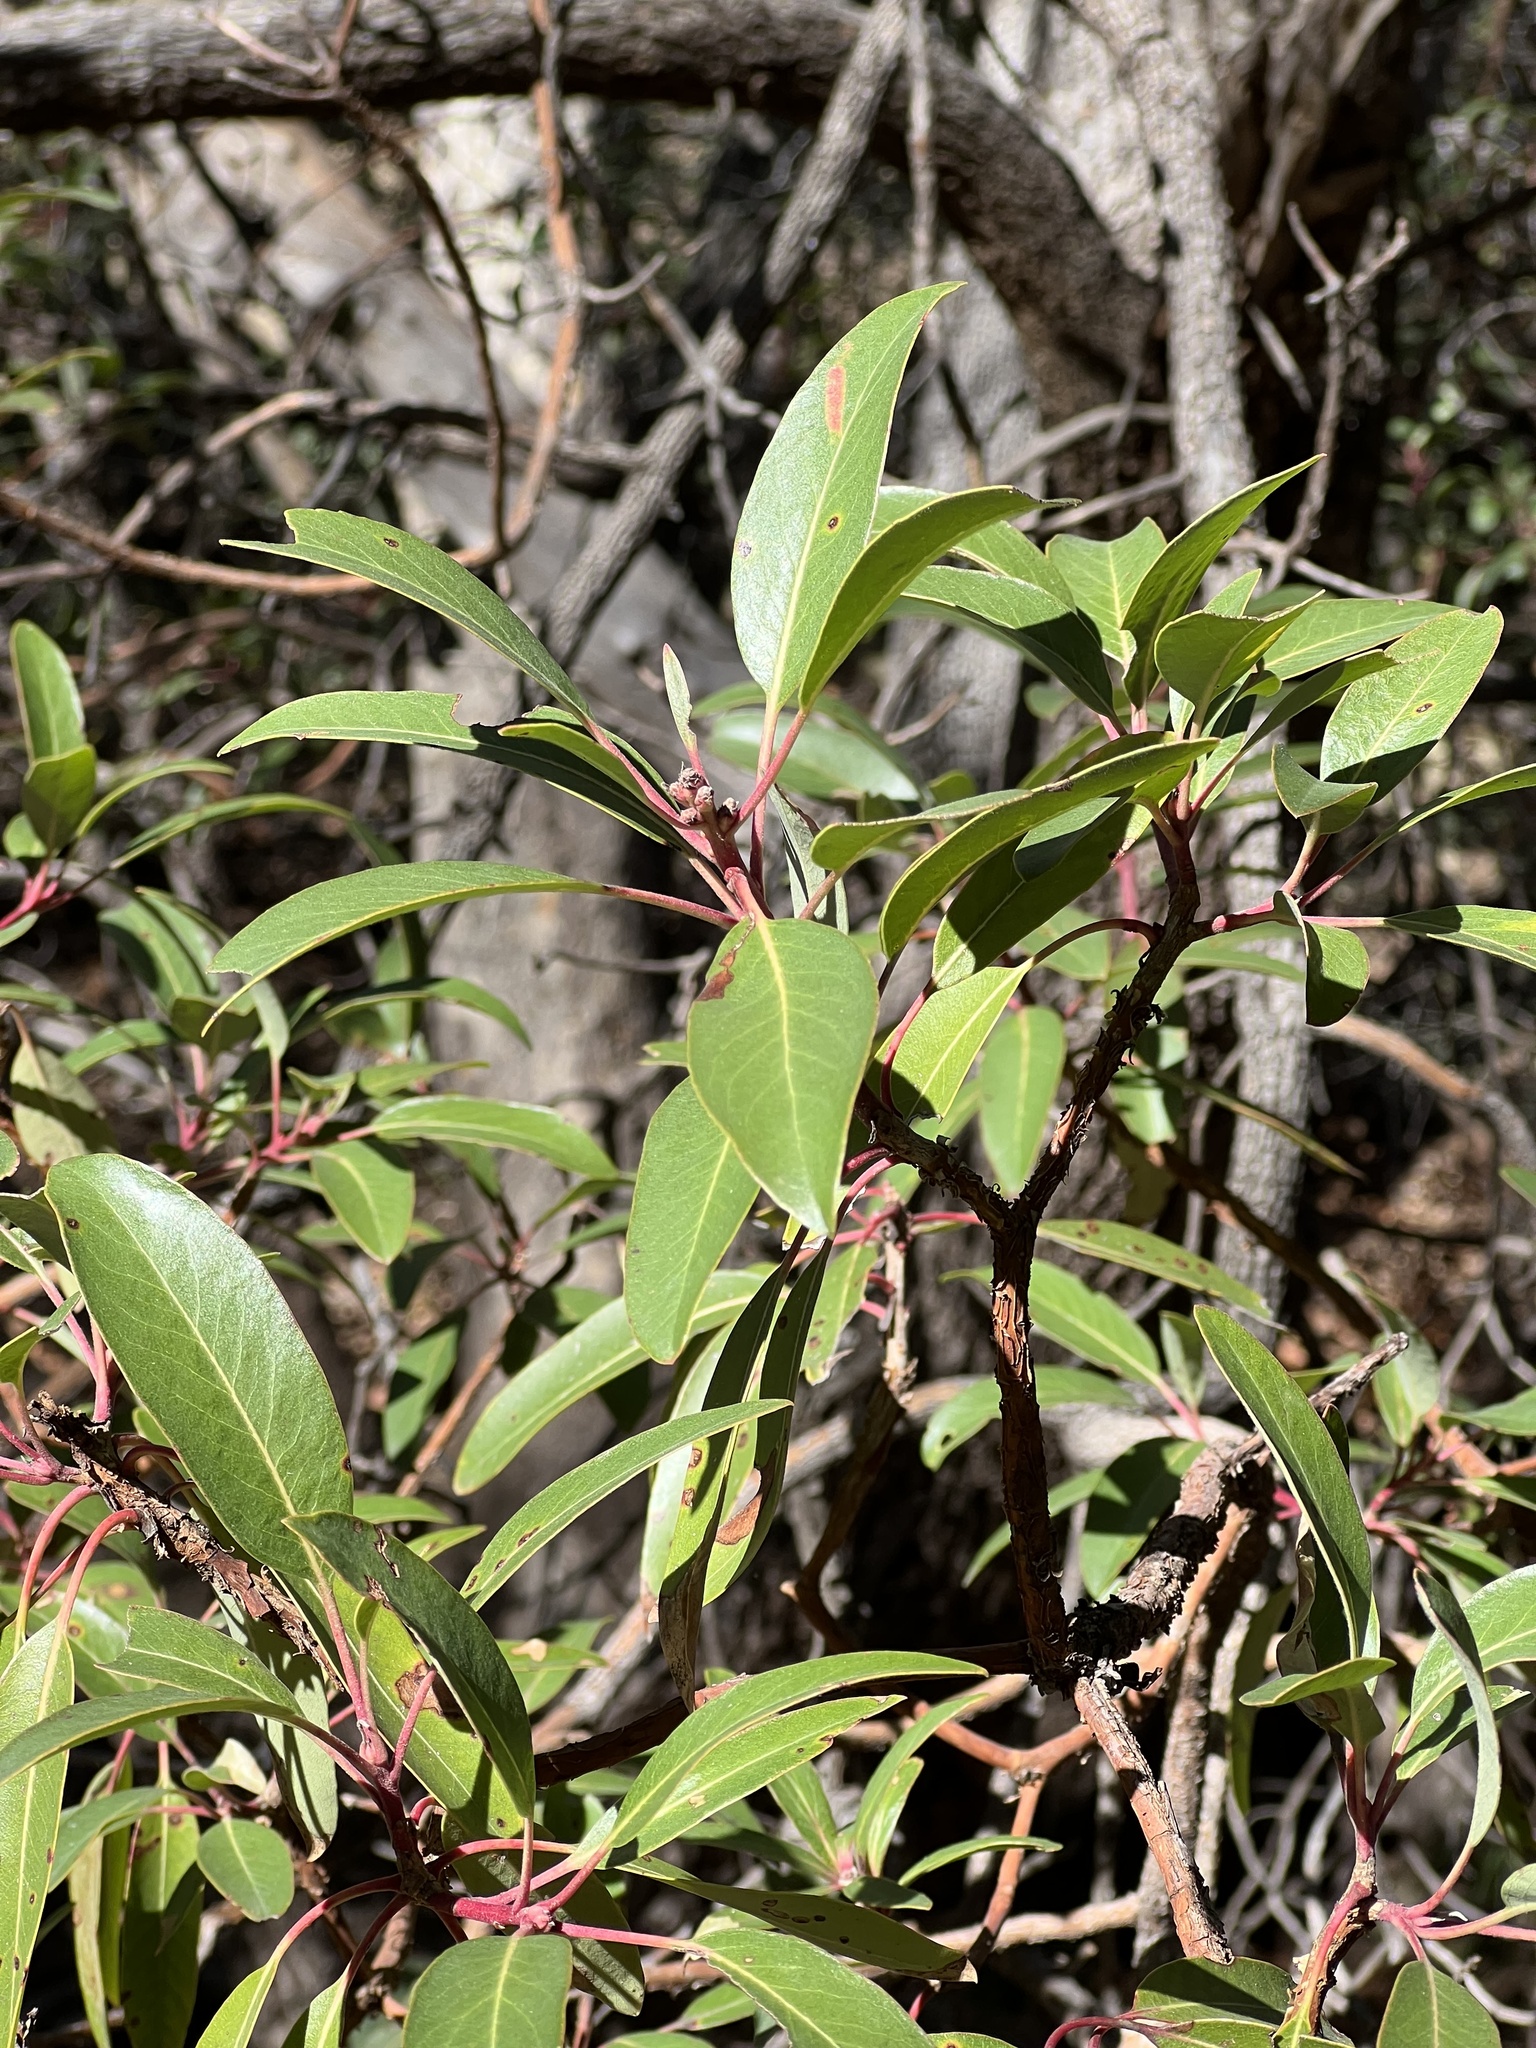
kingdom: Plantae
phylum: Tracheophyta
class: Magnoliopsida
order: Ericales
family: Ericaceae
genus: Arbutus
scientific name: Arbutus arizonica
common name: Arizona madrone
